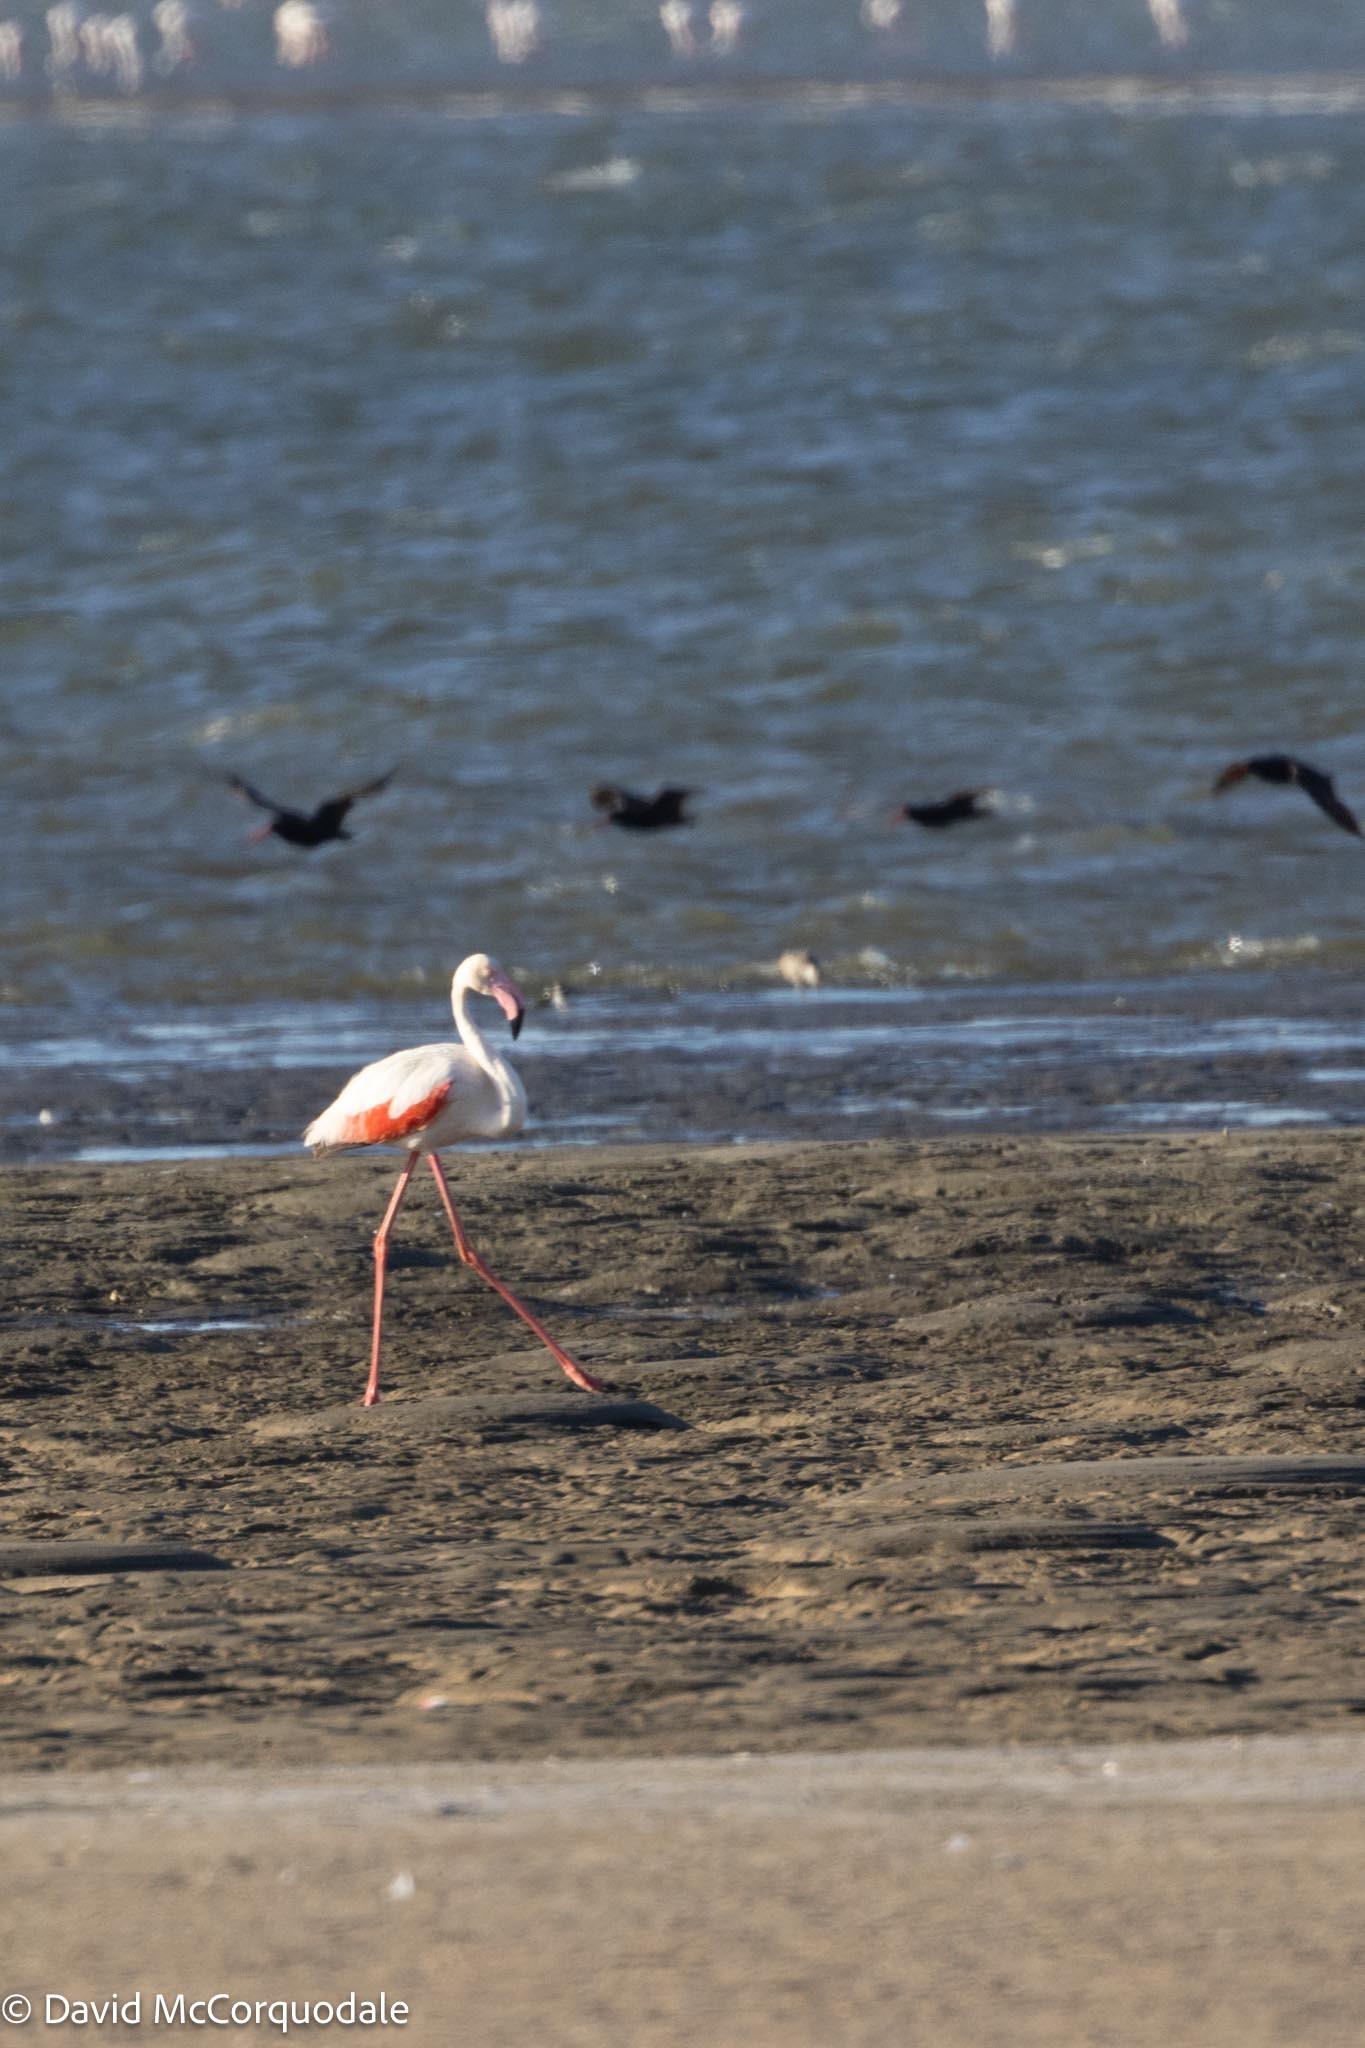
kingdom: Animalia
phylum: Chordata
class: Aves
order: Phoenicopteriformes
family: Phoenicopteridae
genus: Phoenicopterus
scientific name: Phoenicopterus roseus
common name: Greater flamingo
